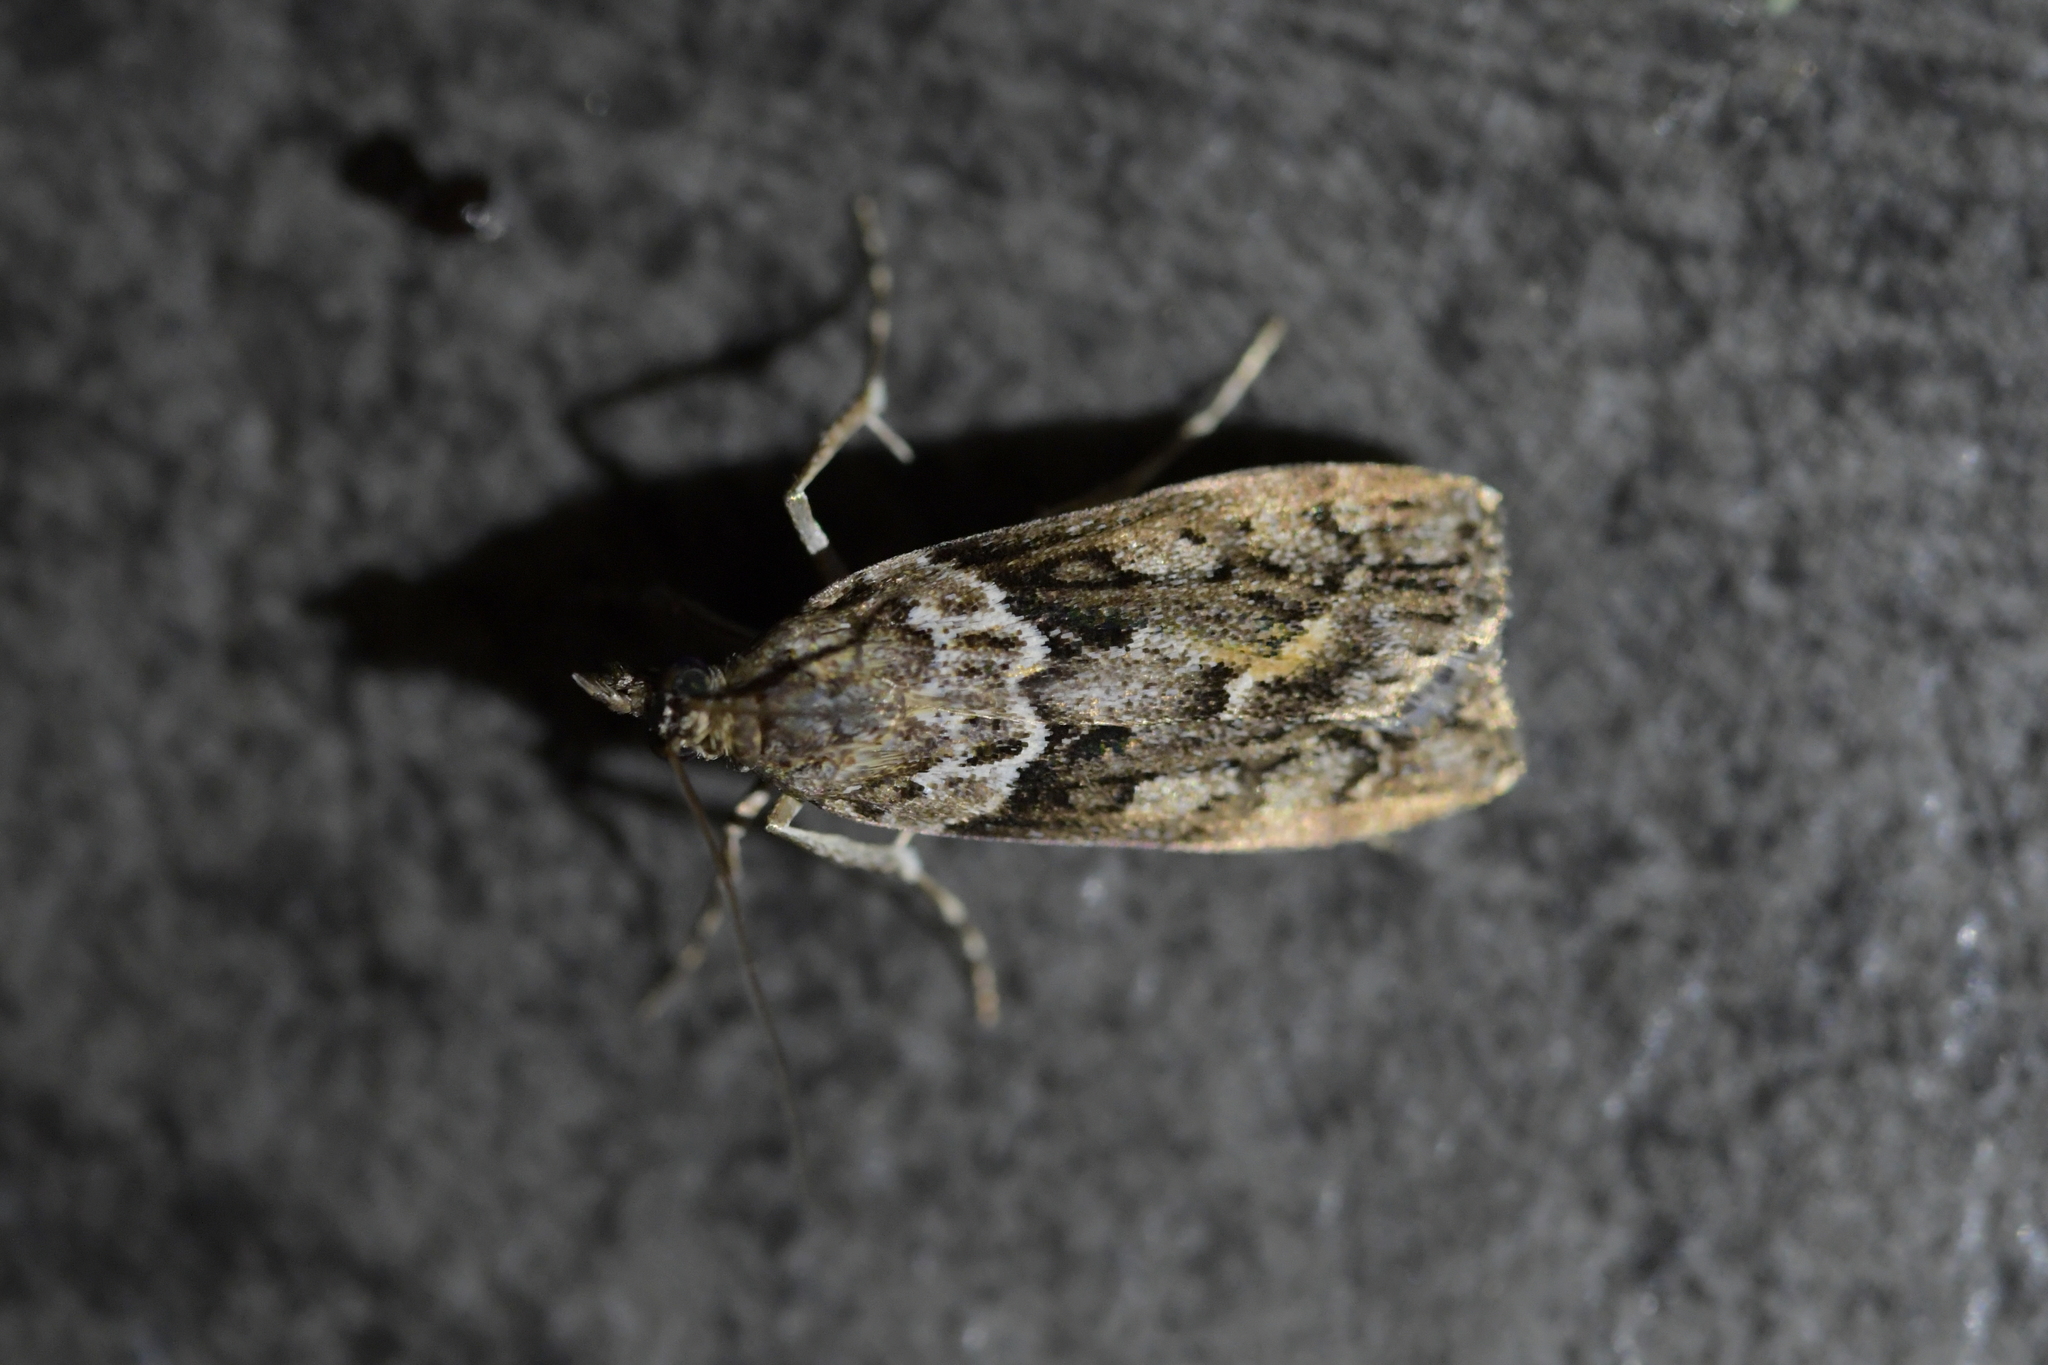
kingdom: Animalia
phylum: Arthropoda
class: Insecta
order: Lepidoptera
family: Crambidae
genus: Eudonia
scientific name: Eudonia submarginalis
